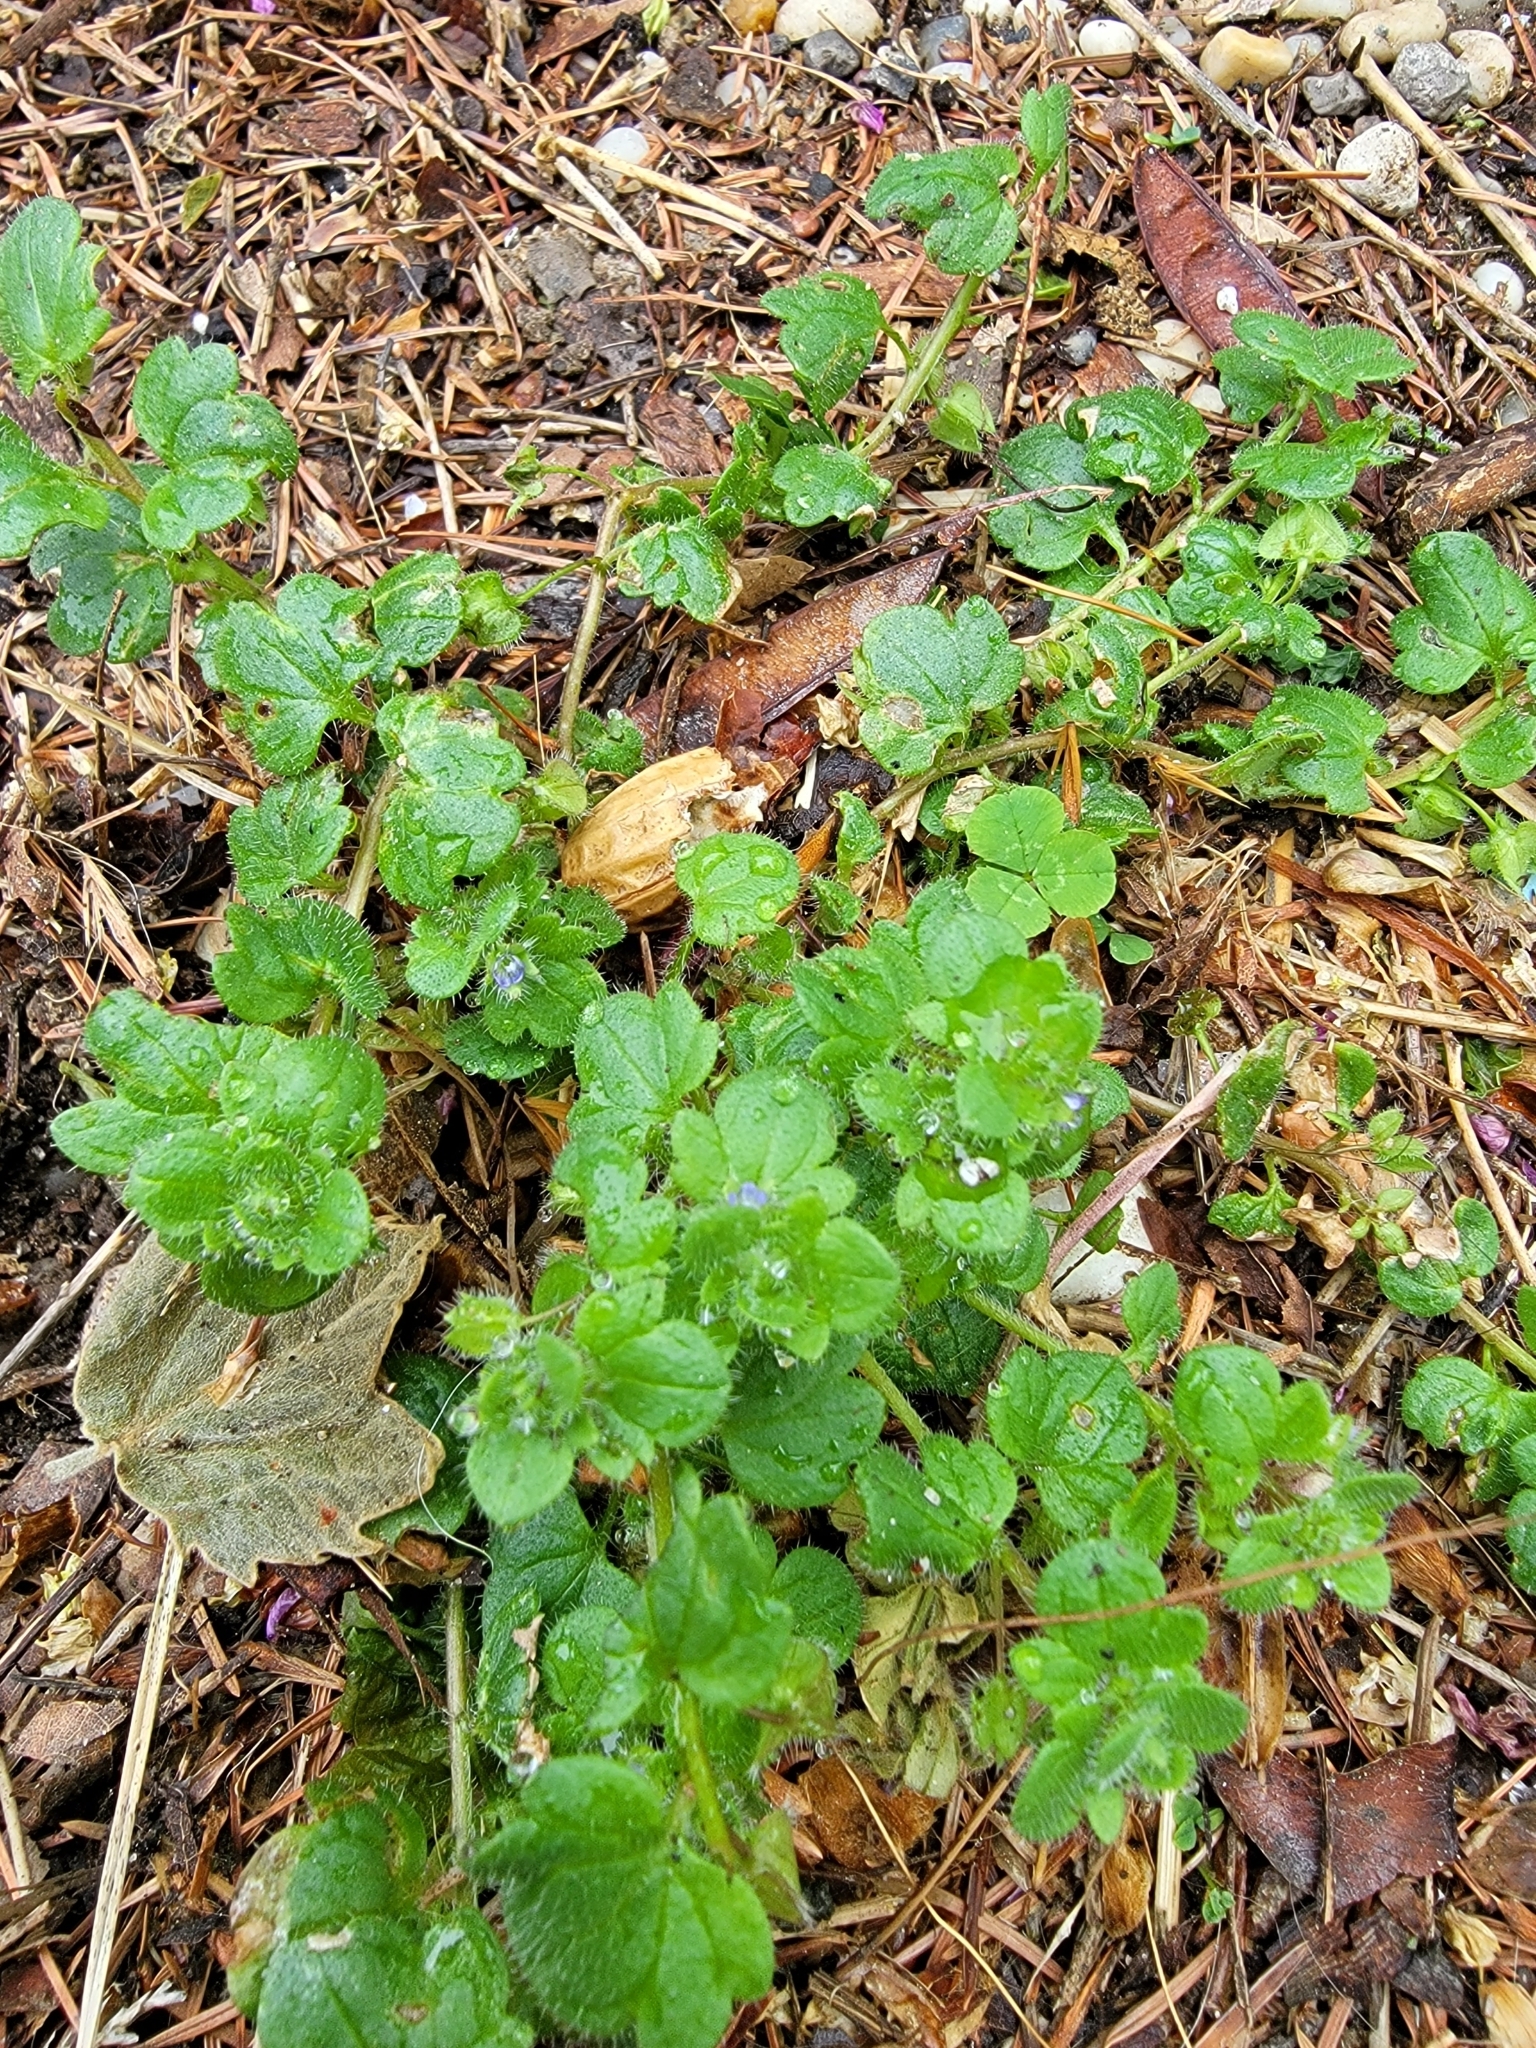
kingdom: Plantae
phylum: Tracheophyta
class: Magnoliopsida
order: Lamiales
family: Plantaginaceae
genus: Veronica
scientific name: Veronica hederifolia
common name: Ivy-leaved speedwell
